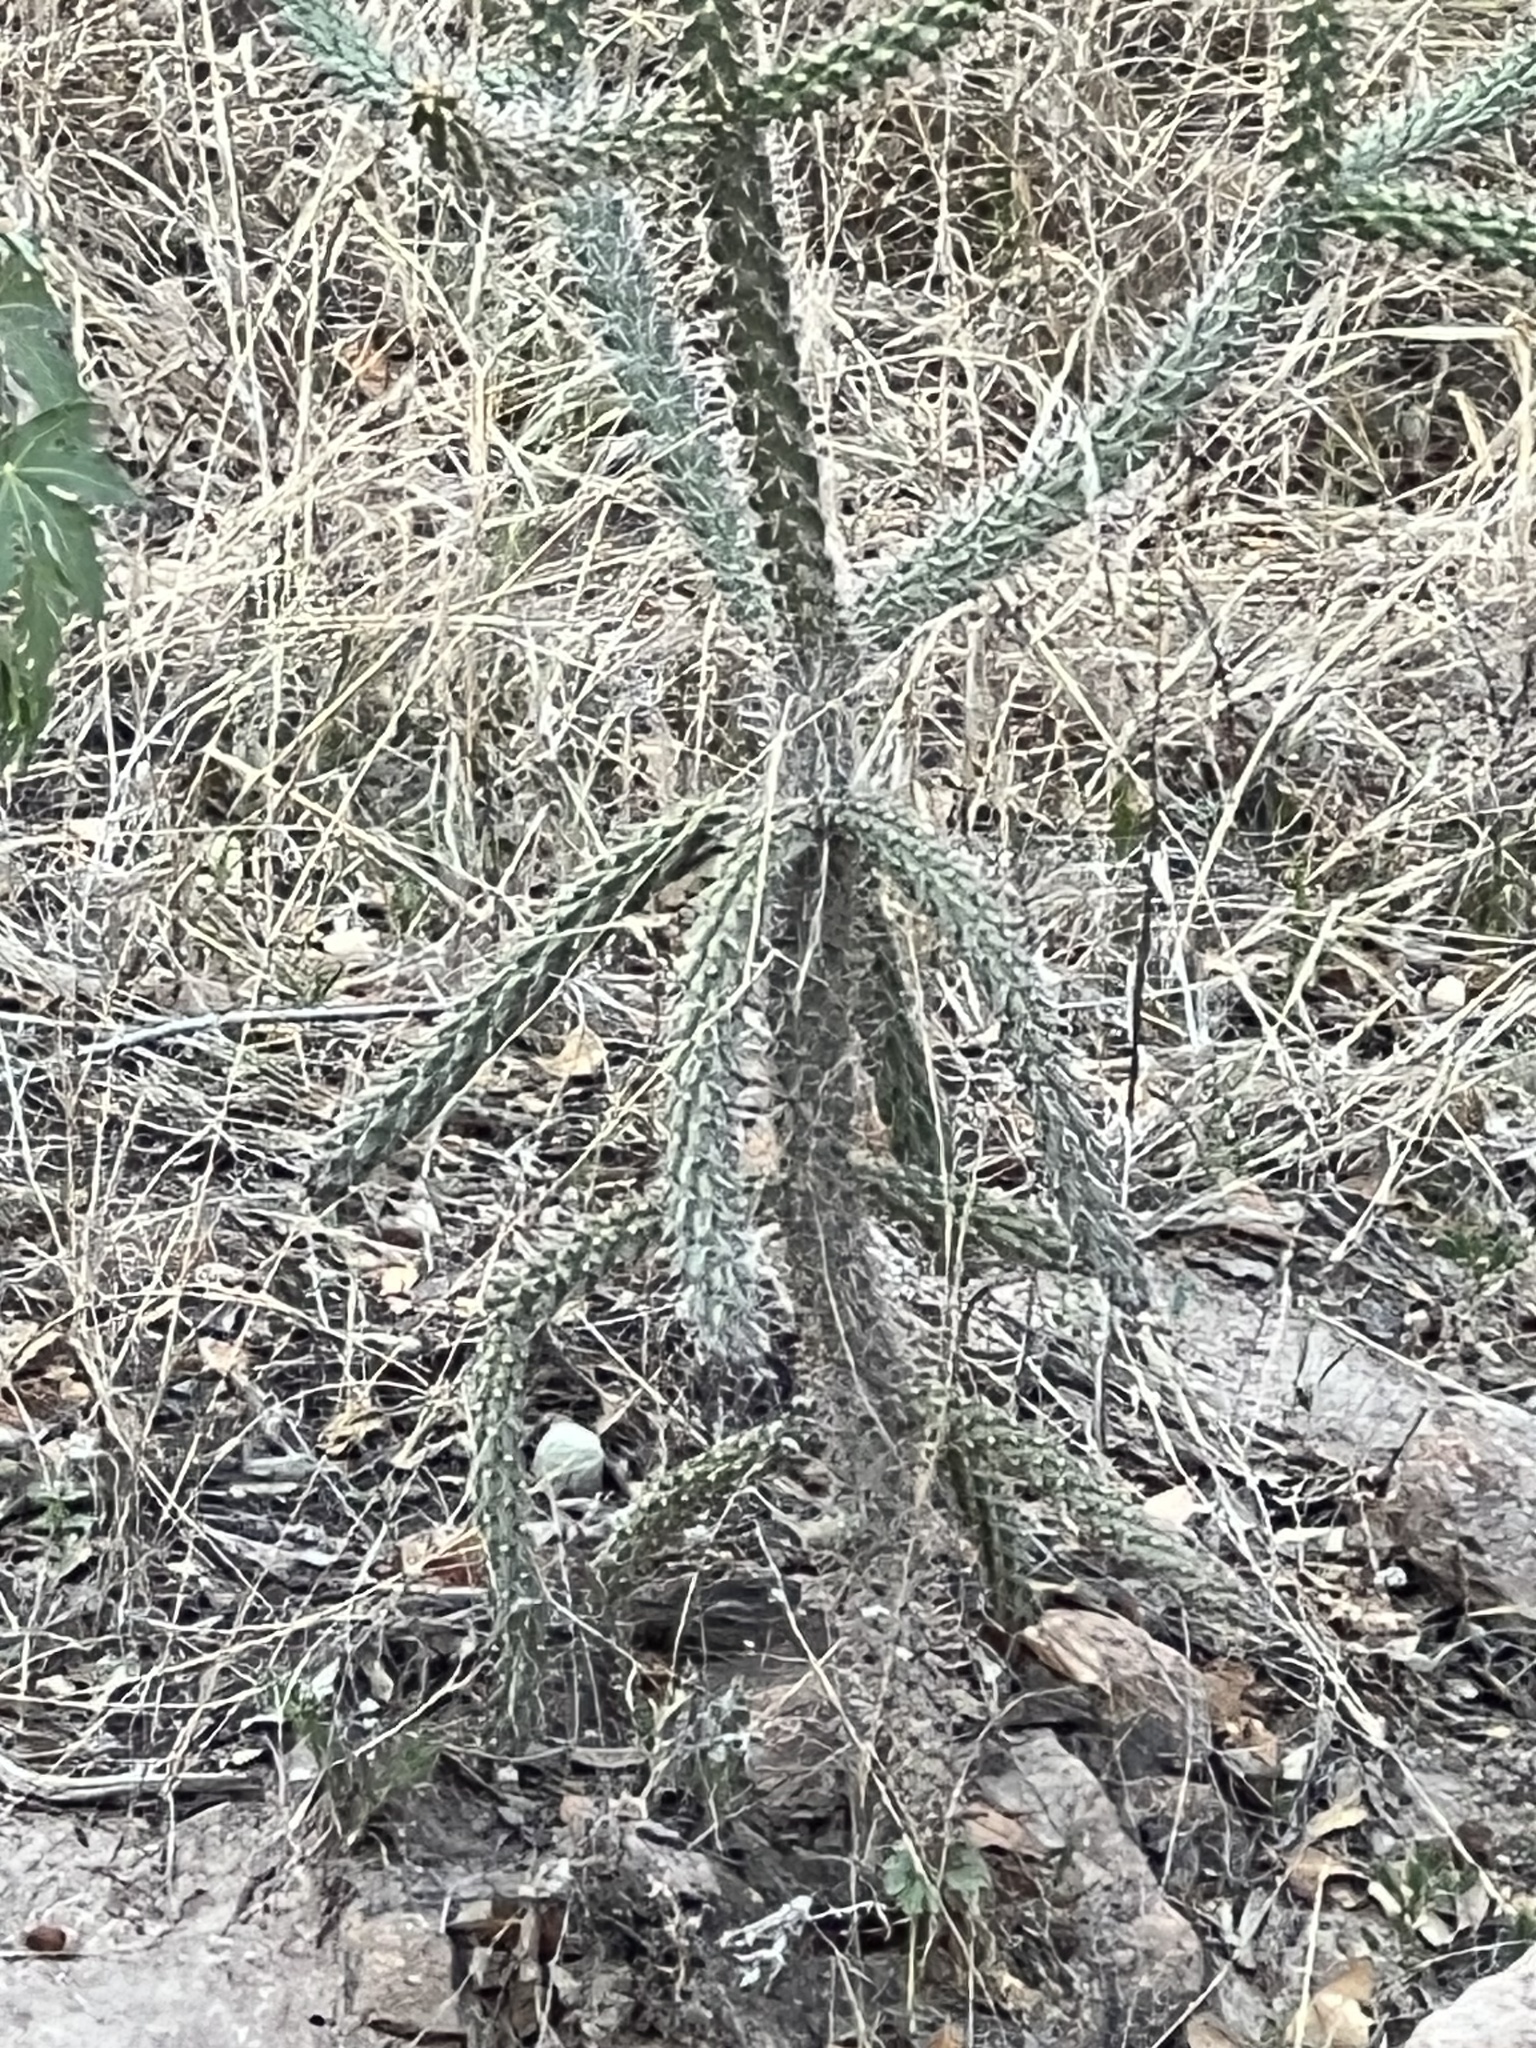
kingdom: Plantae
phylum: Tracheophyta
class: Magnoliopsida
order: Caryophyllales
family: Cactaceae
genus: Cylindropuntia
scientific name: Cylindropuntia imbricata
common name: Candelabrum cactus
